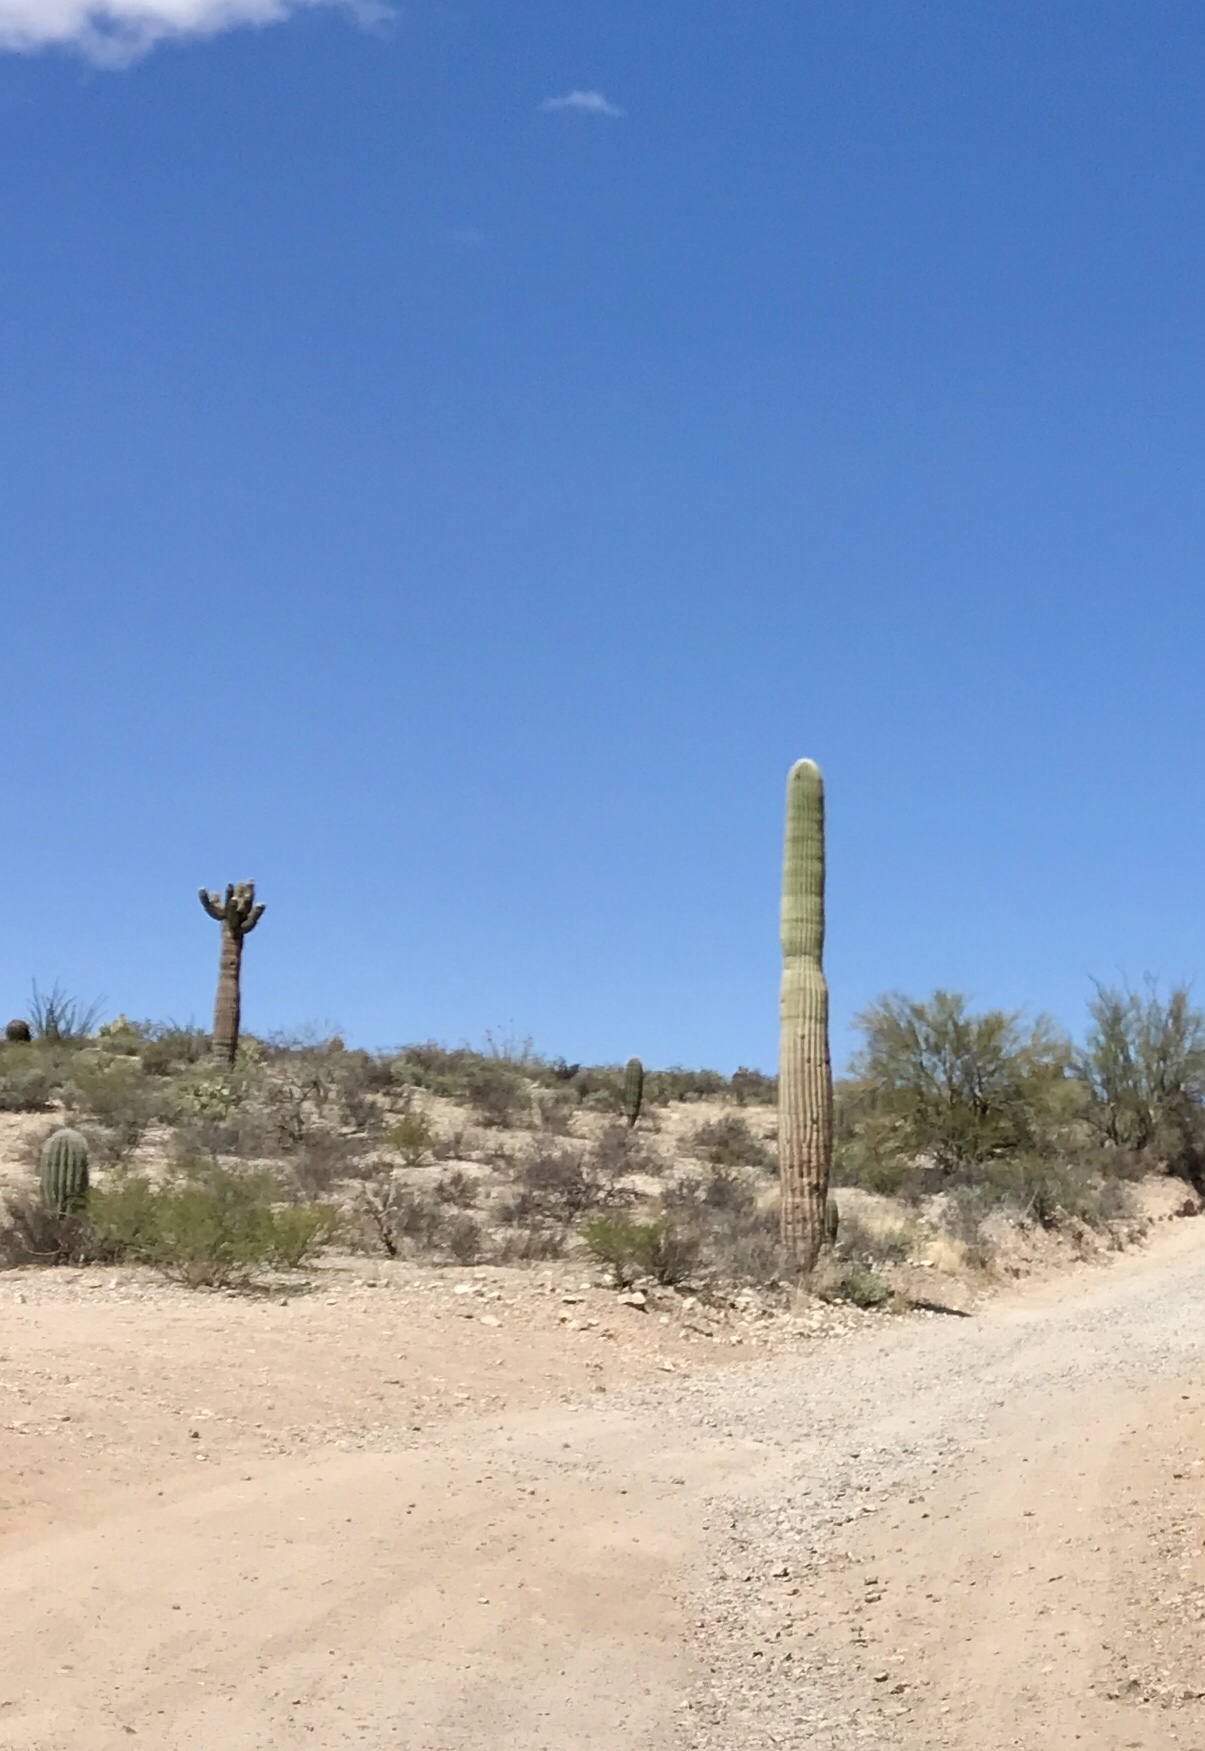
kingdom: Plantae
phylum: Tracheophyta
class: Magnoliopsida
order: Caryophyllales
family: Cactaceae
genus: Carnegiea
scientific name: Carnegiea gigantea
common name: Saguaro
